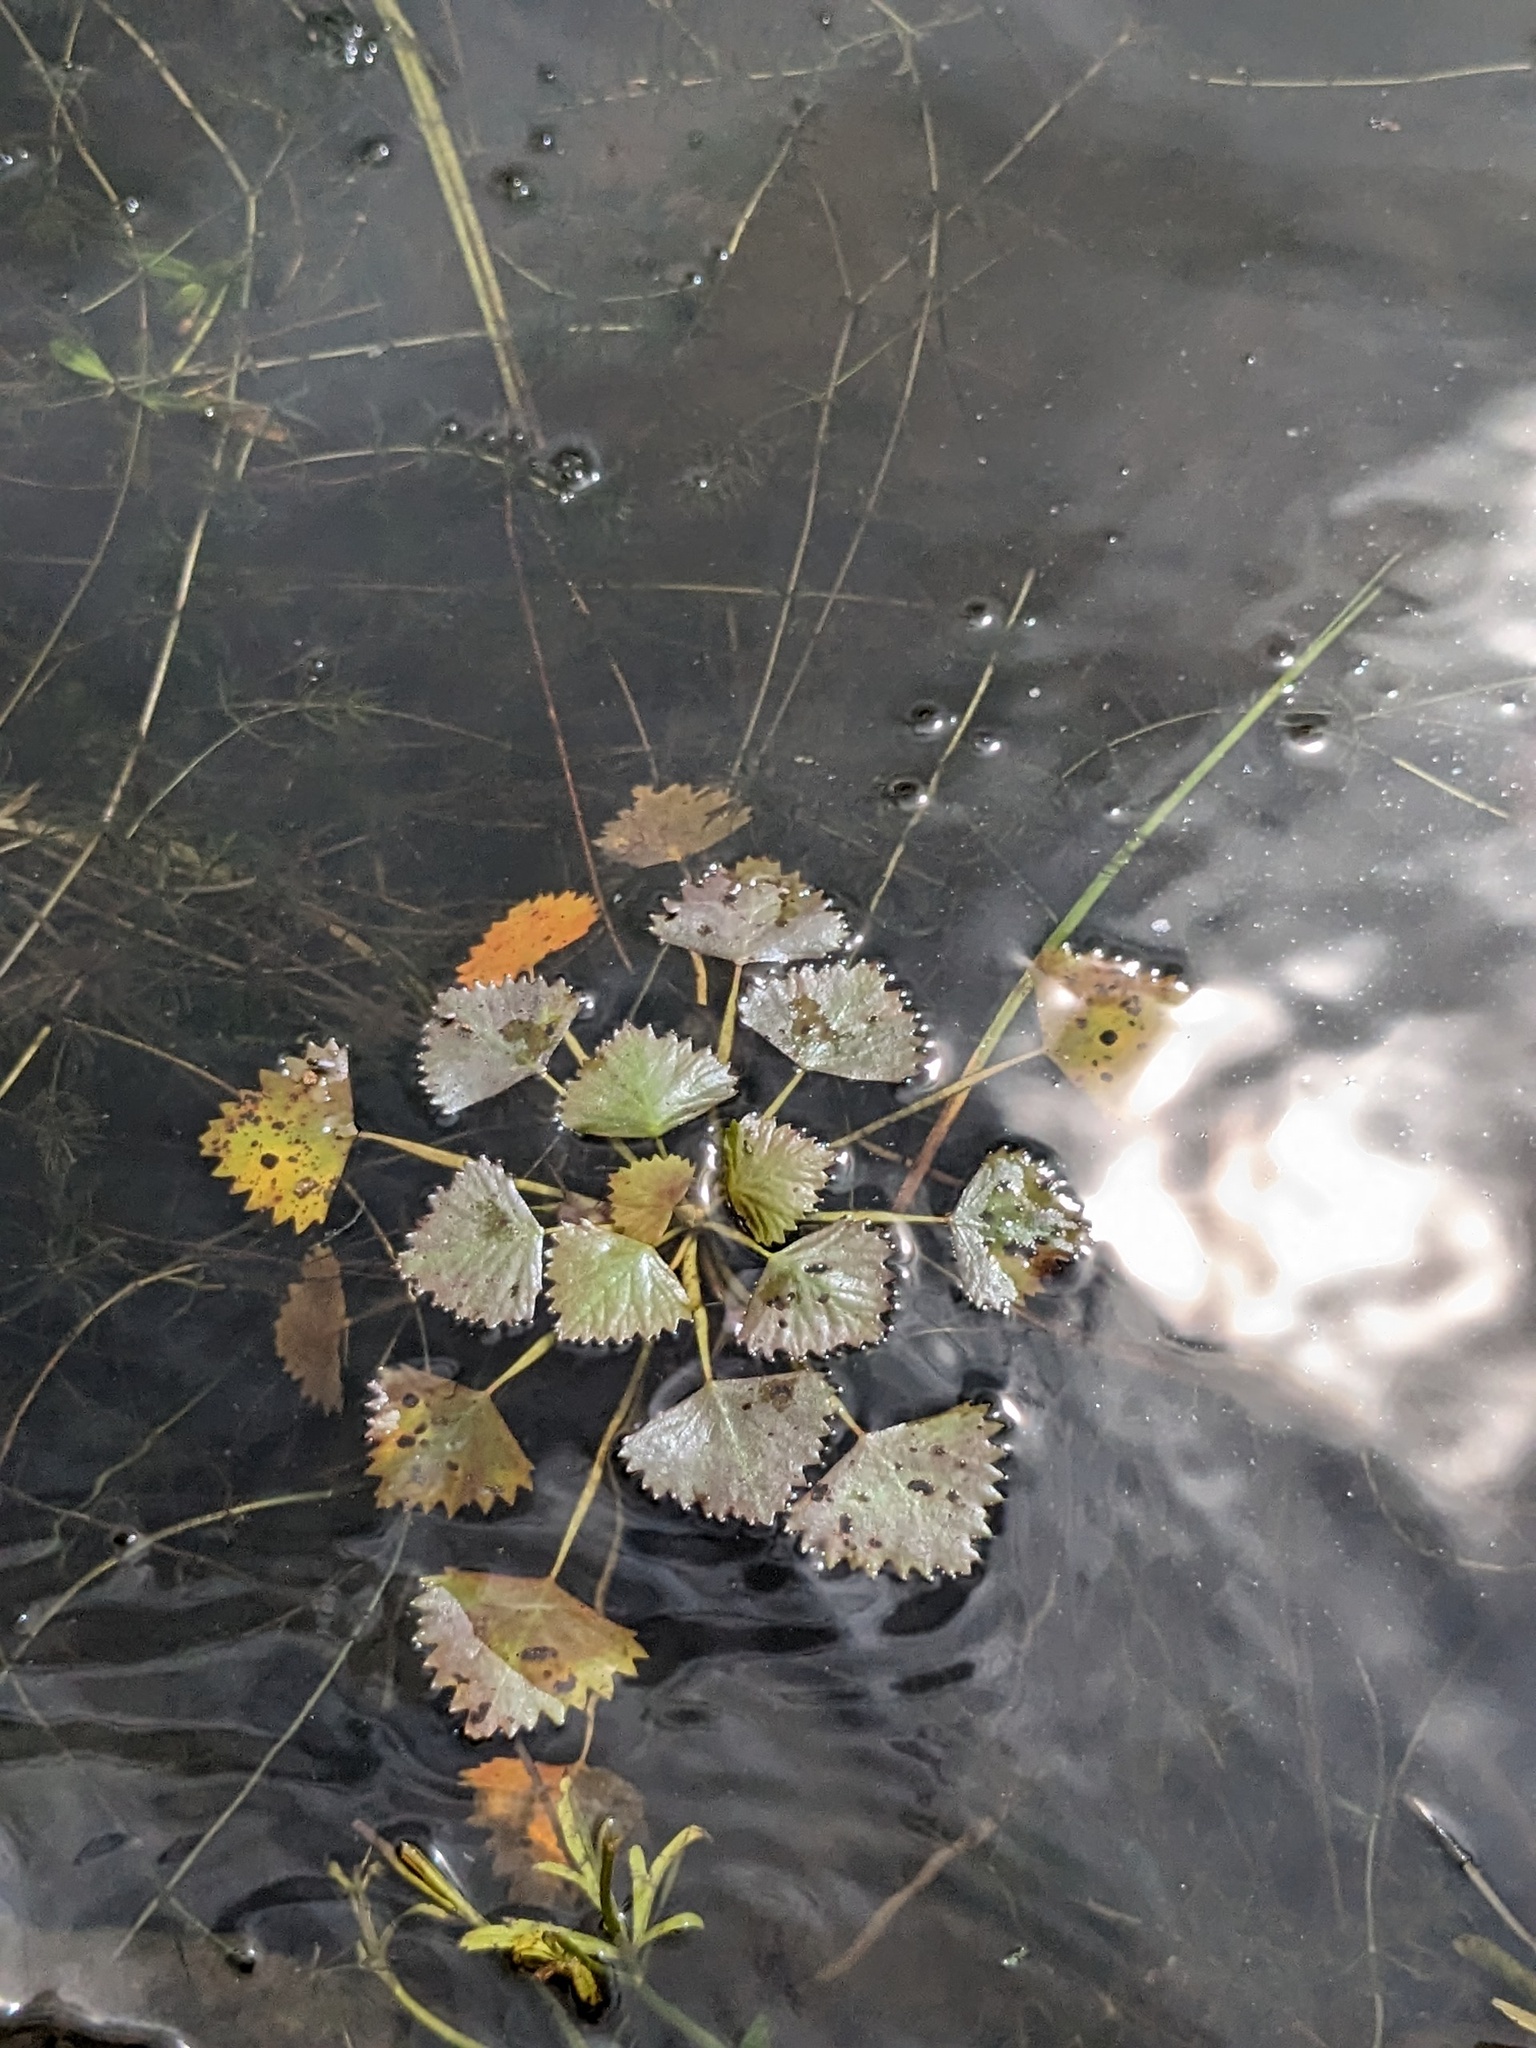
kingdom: Plantae
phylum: Tracheophyta
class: Magnoliopsida
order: Myrtales
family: Lythraceae
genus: Trapa
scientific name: Trapa natans
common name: Water chestnut
